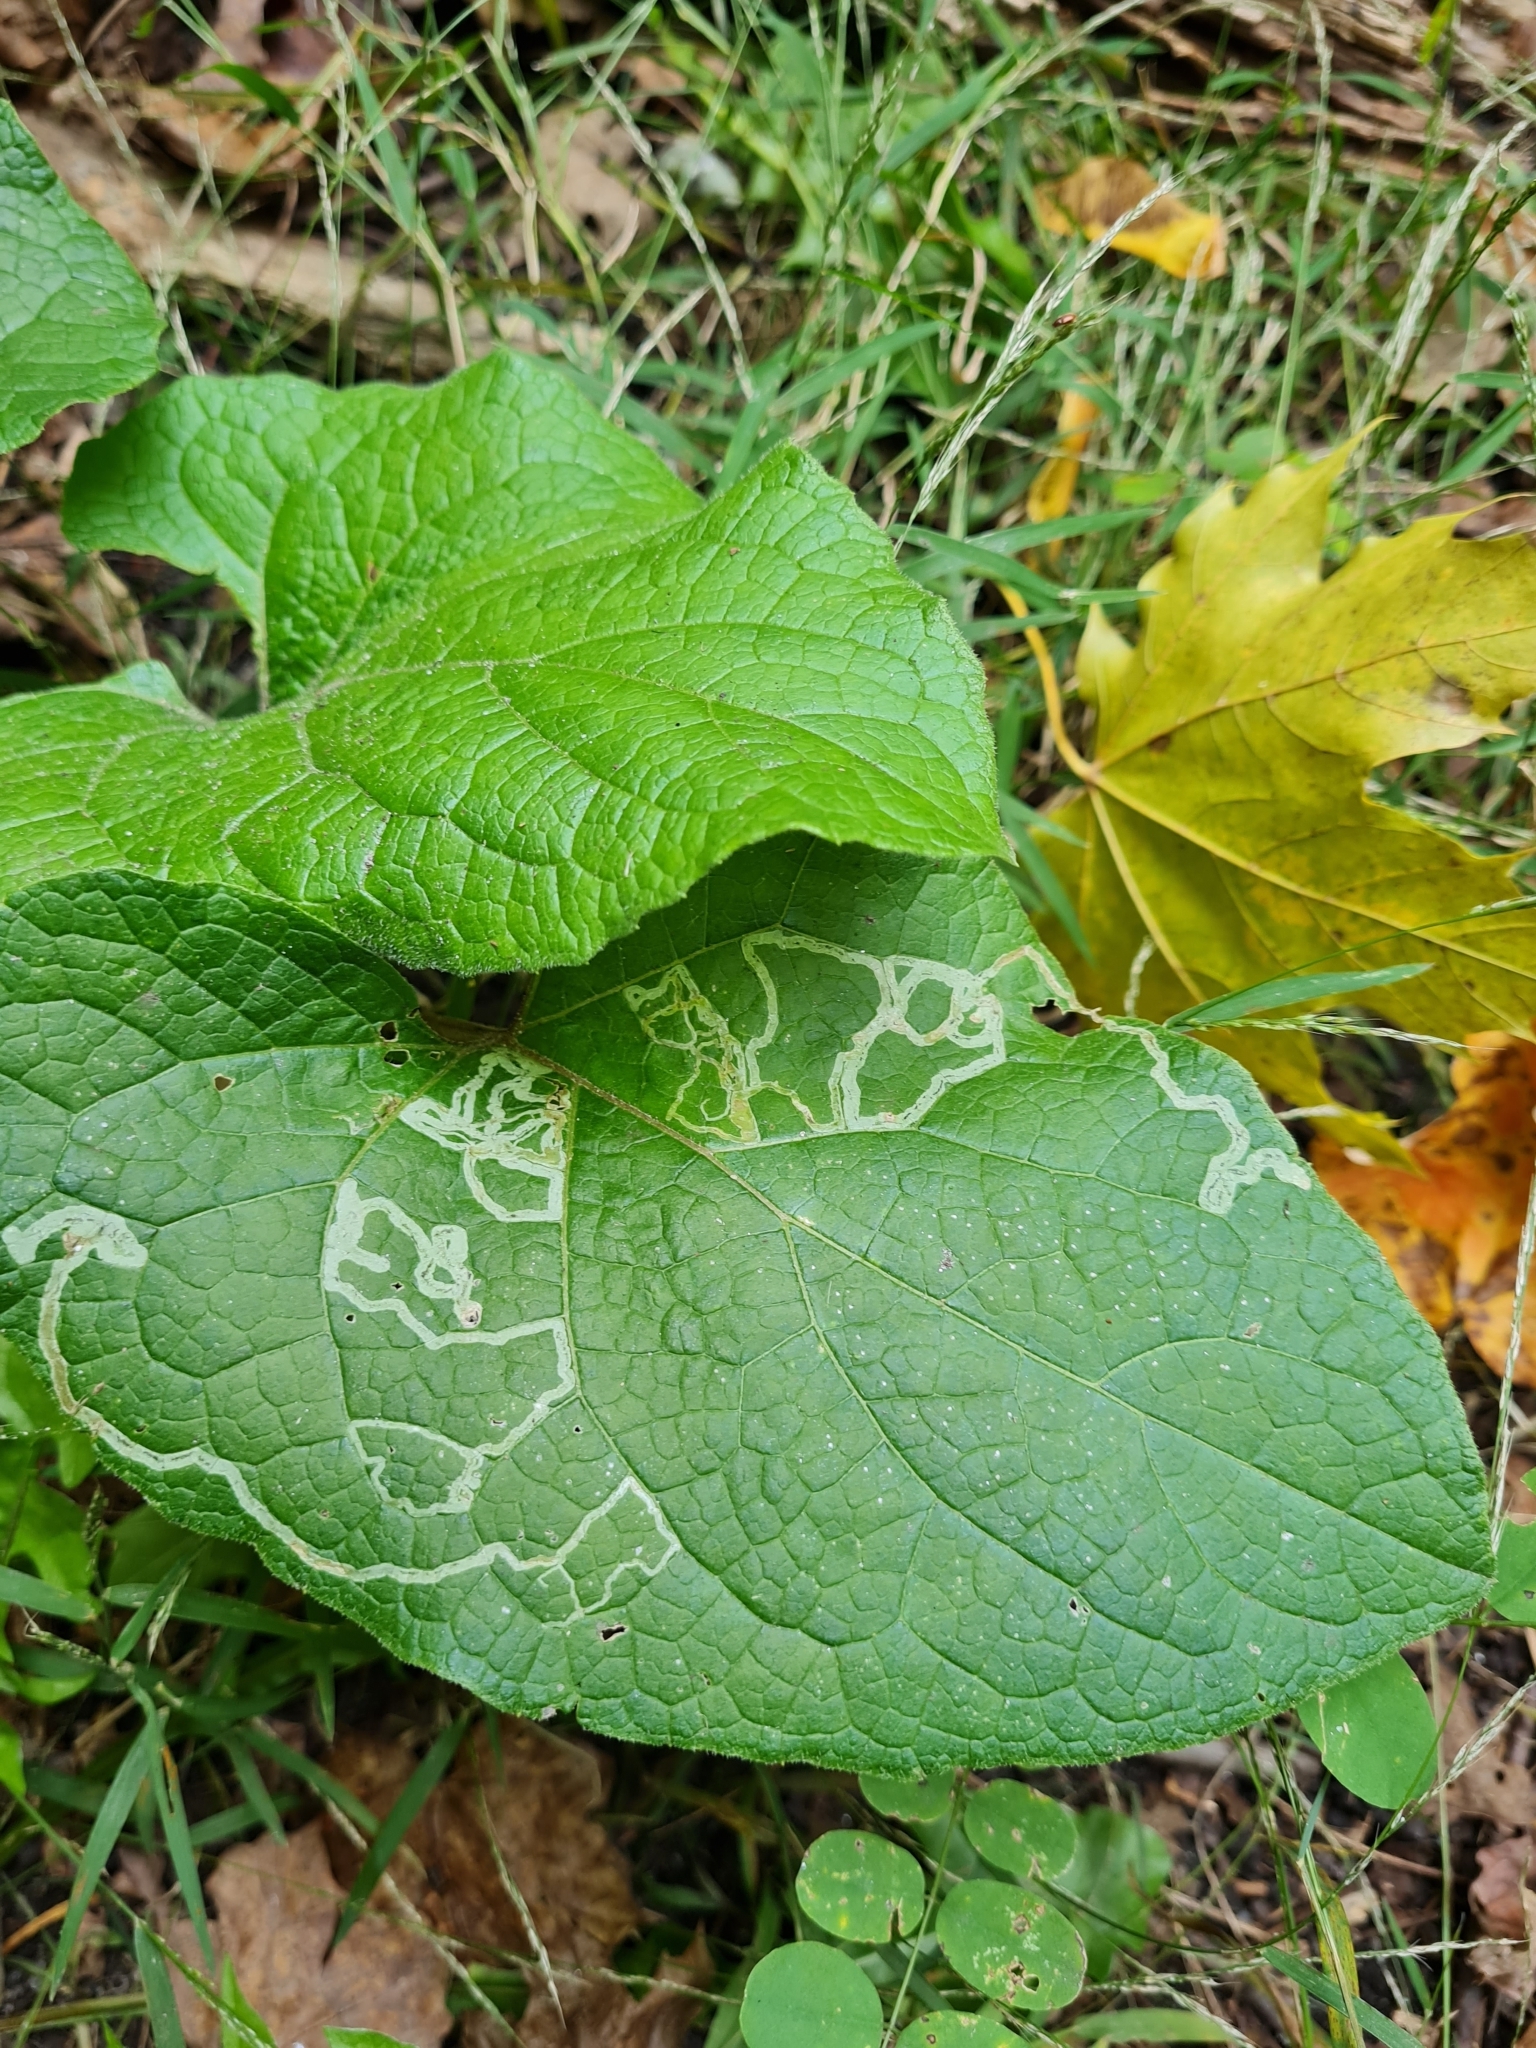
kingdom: Animalia
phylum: Arthropoda
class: Insecta
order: Diptera
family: Agromyzidae
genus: Liriomyza
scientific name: Liriomyza arctii
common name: Burdock leafminer
